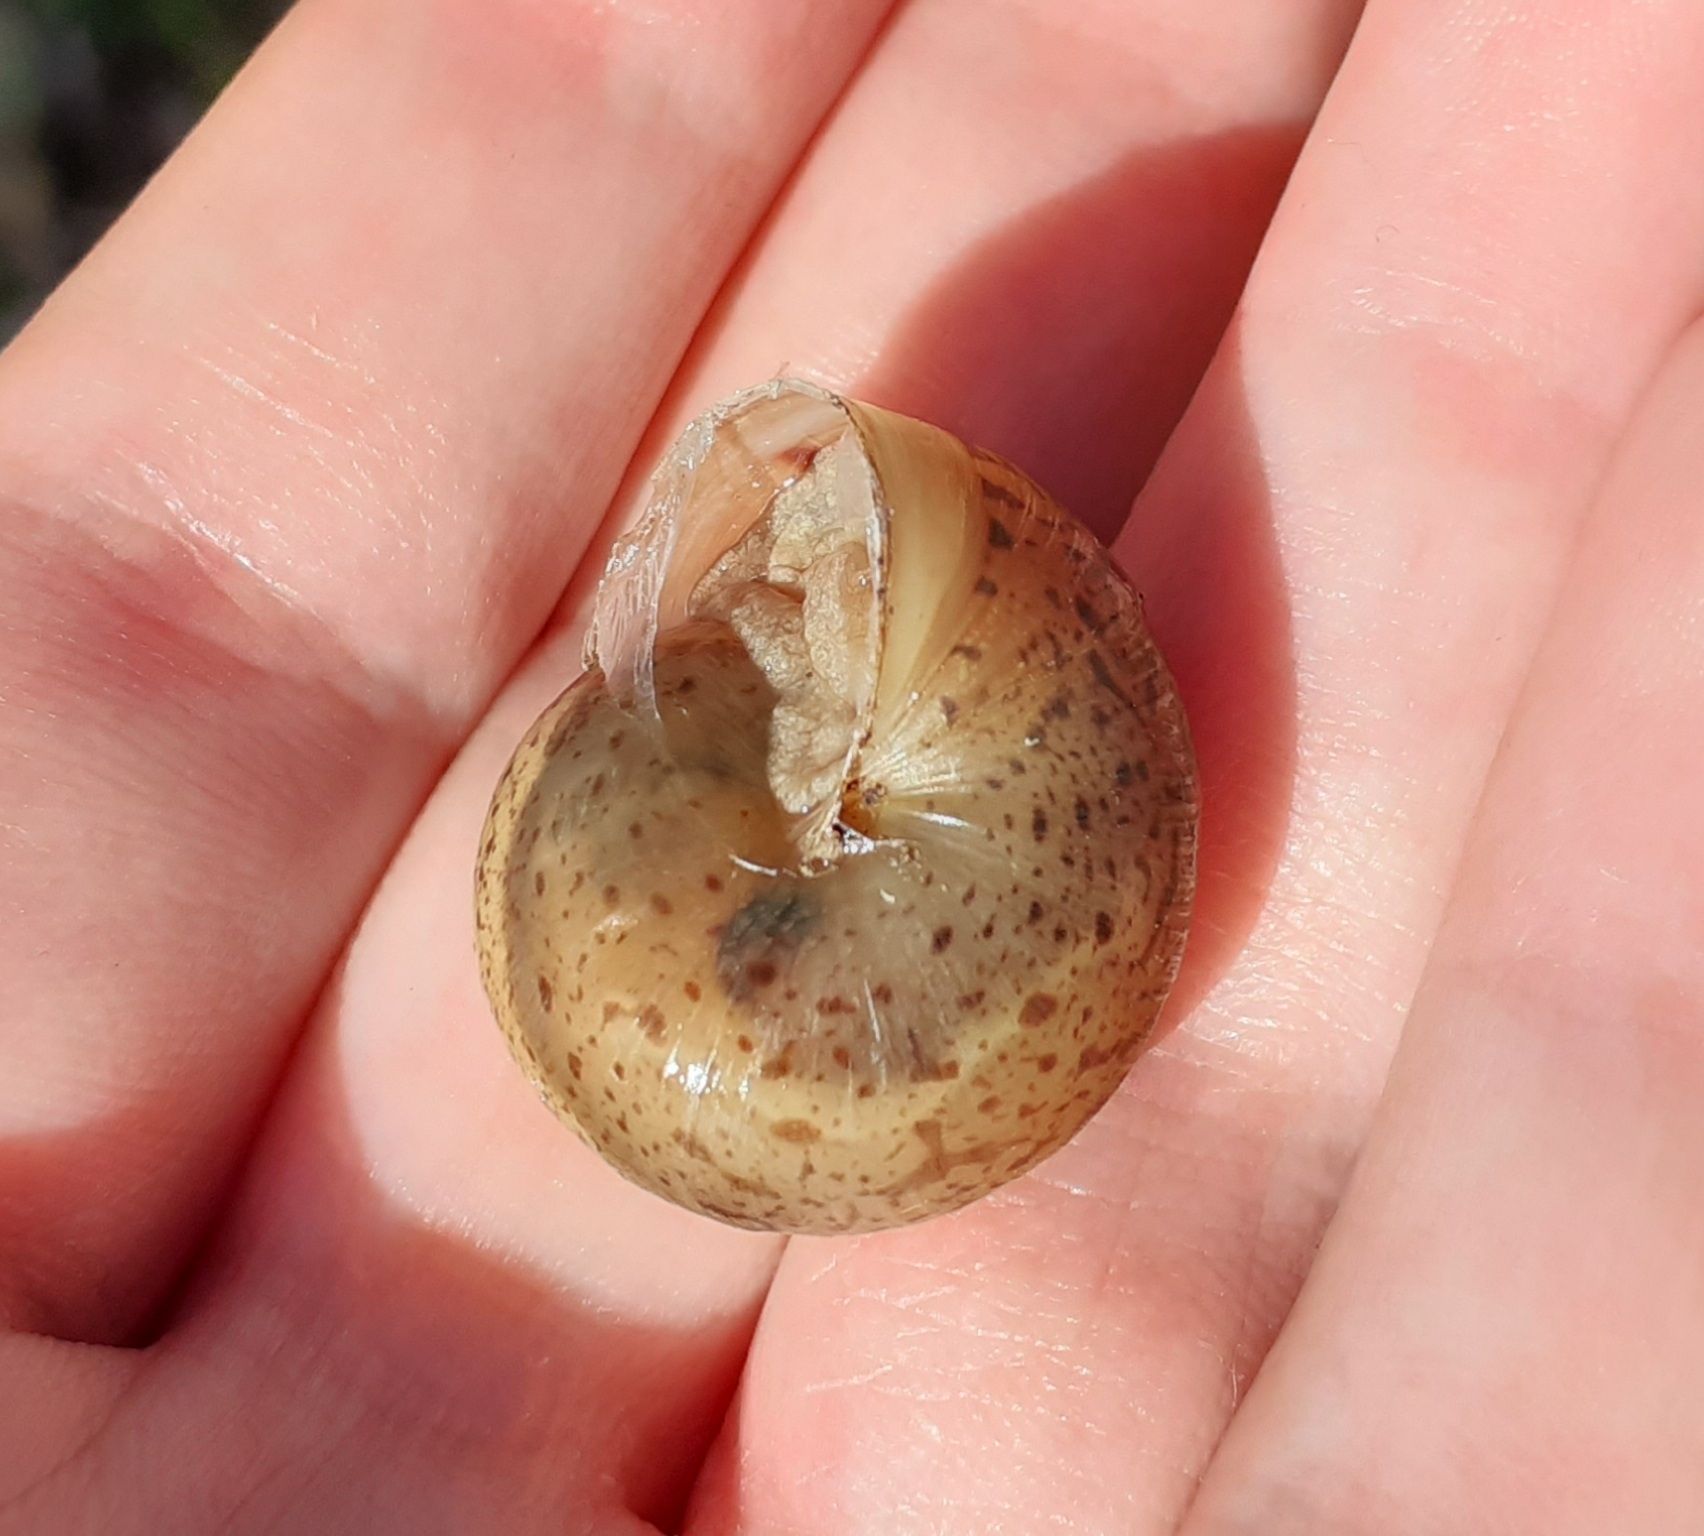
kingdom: Animalia
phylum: Mollusca
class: Gastropoda
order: Stylommatophora
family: Hygromiidae
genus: Portugala
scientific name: Portugala inchoata
